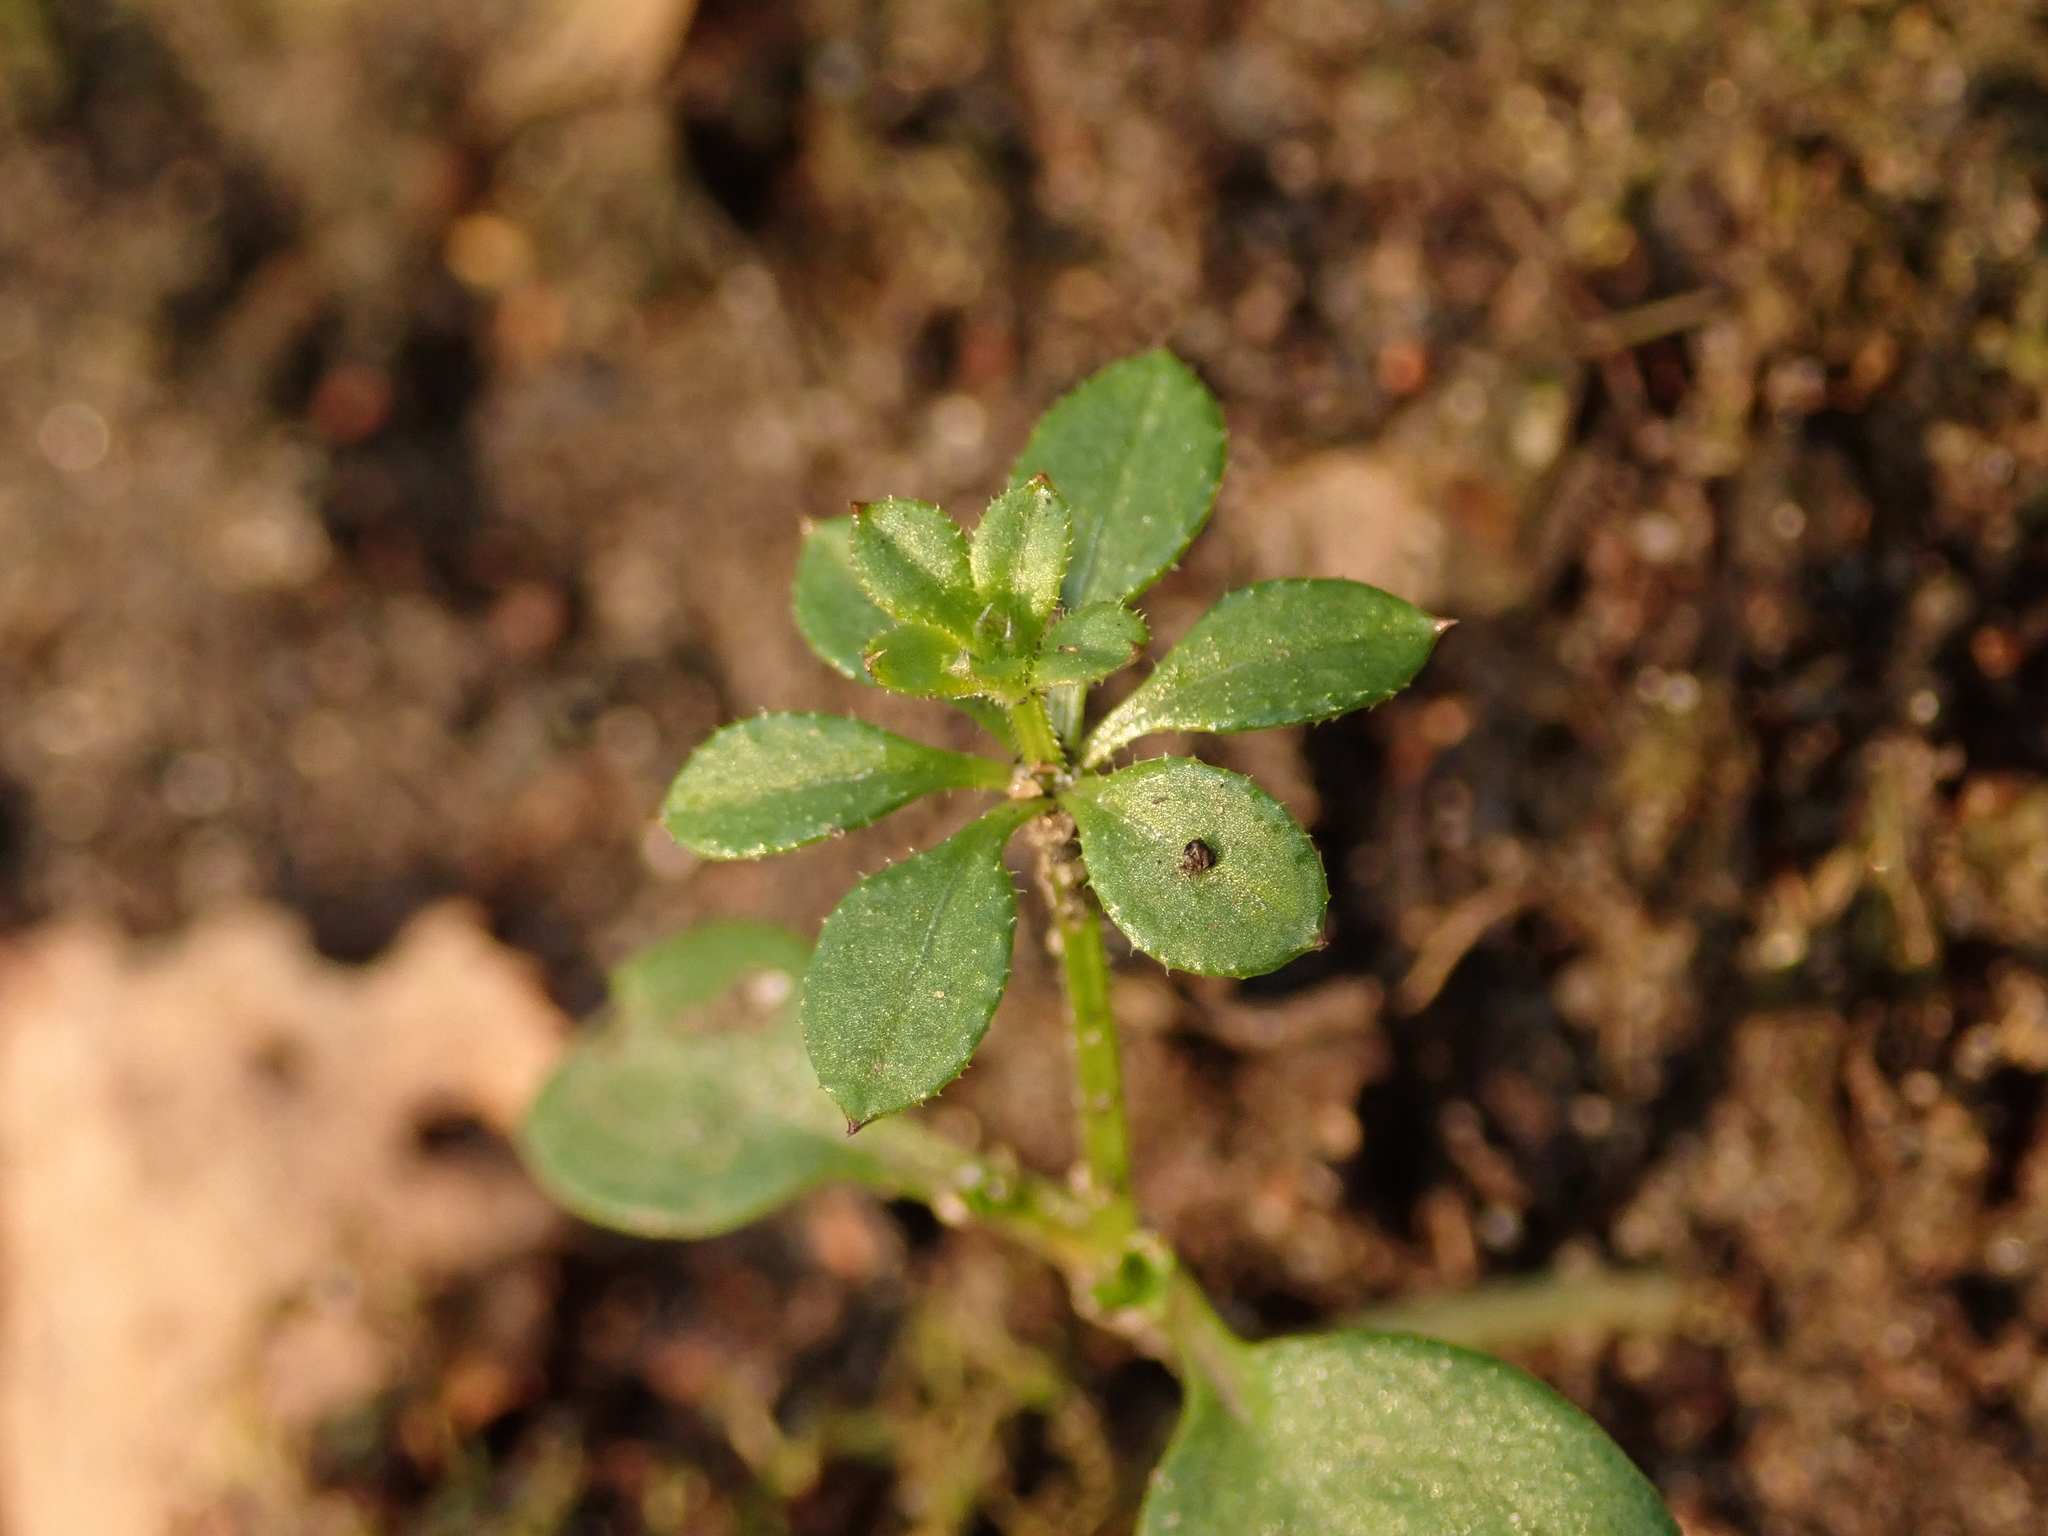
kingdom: Plantae
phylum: Tracheophyta
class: Magnoliopsida
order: Gentianales
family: Rubiaceae
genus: Galium
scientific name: Galium aparine
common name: Cleavers
